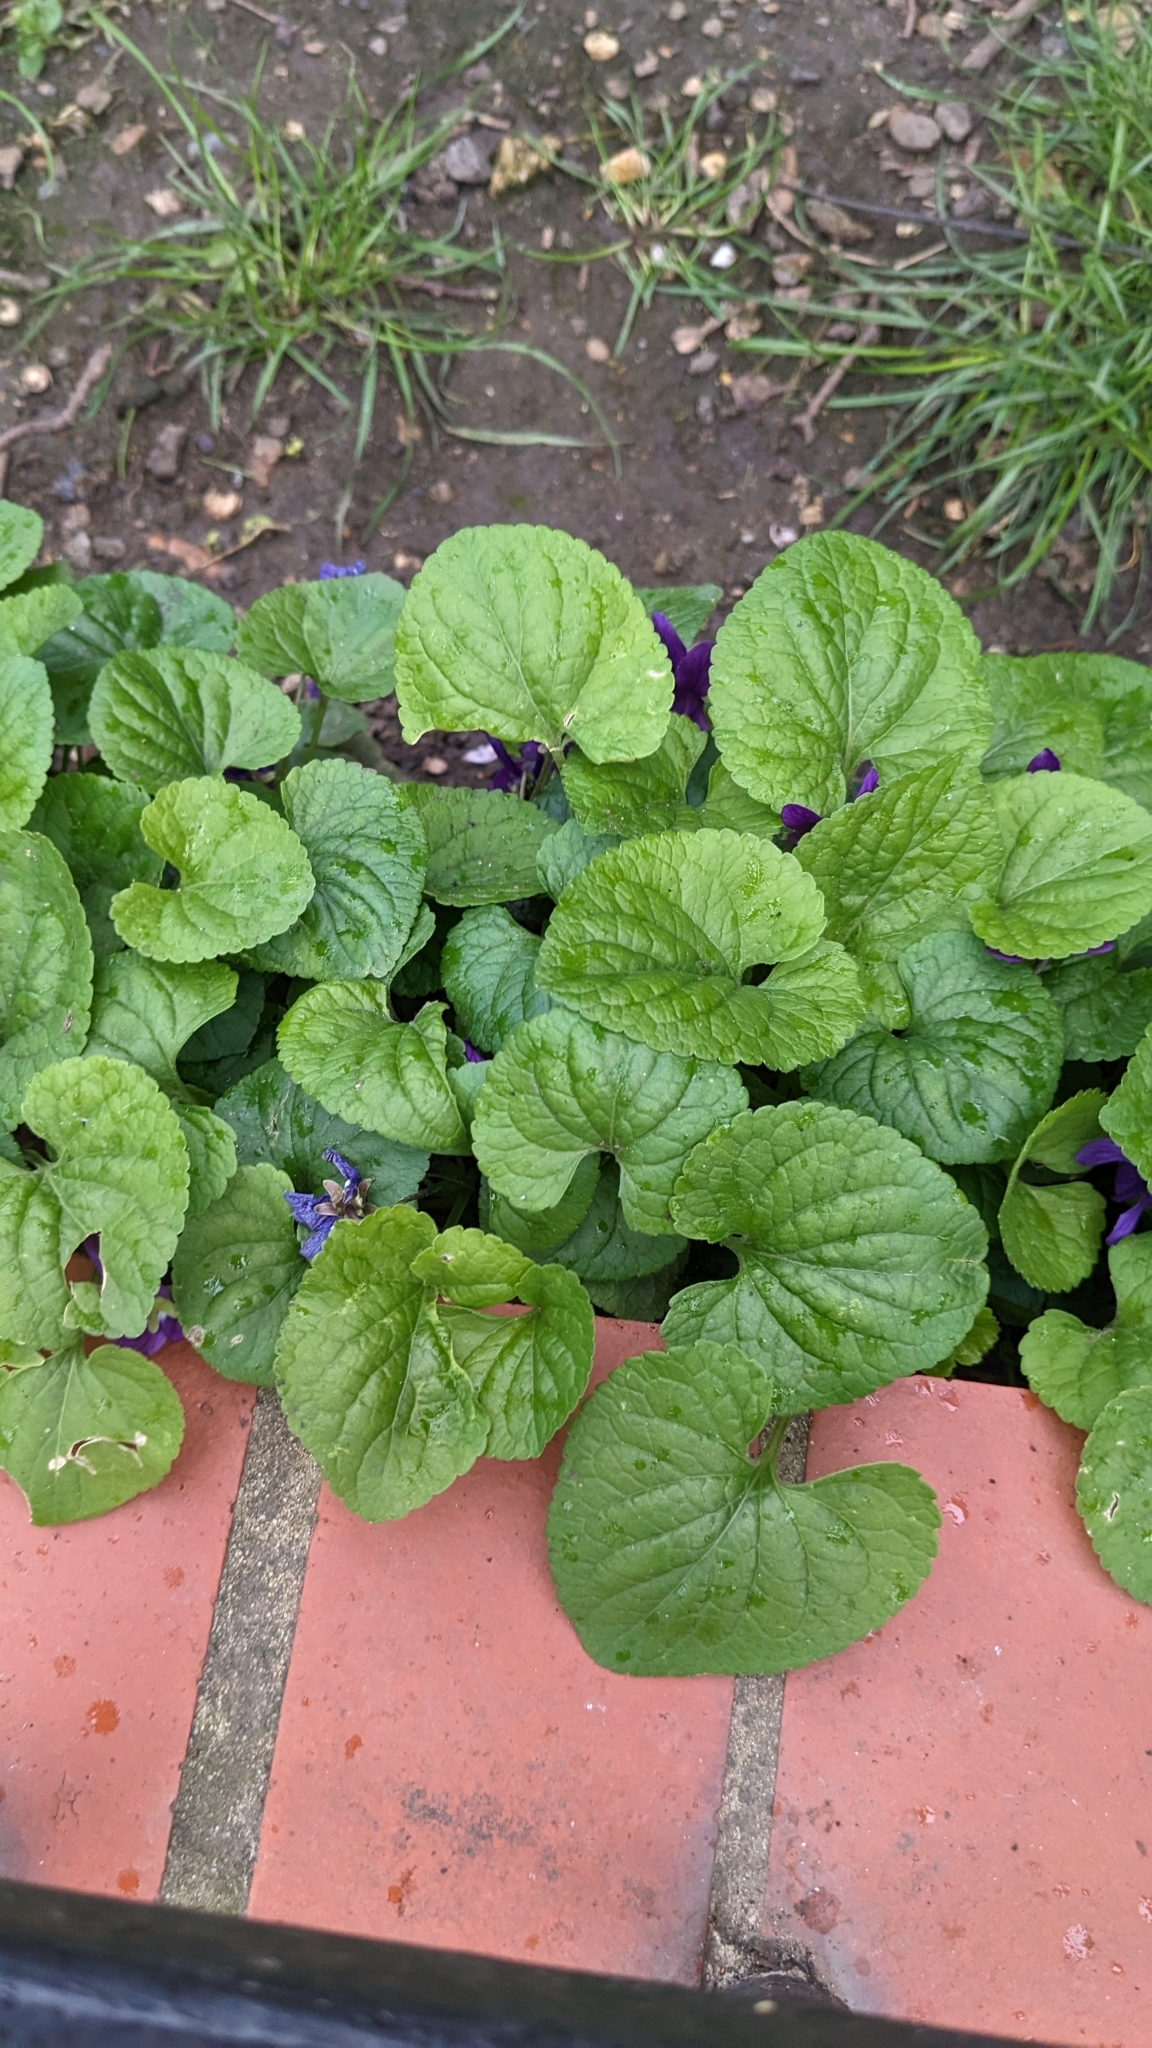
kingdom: Plantae
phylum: Tracheophyta
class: Magnoliopsida
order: Malpighiales
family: Violaceae
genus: Viola
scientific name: Viola odorata
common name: Sweet violet
